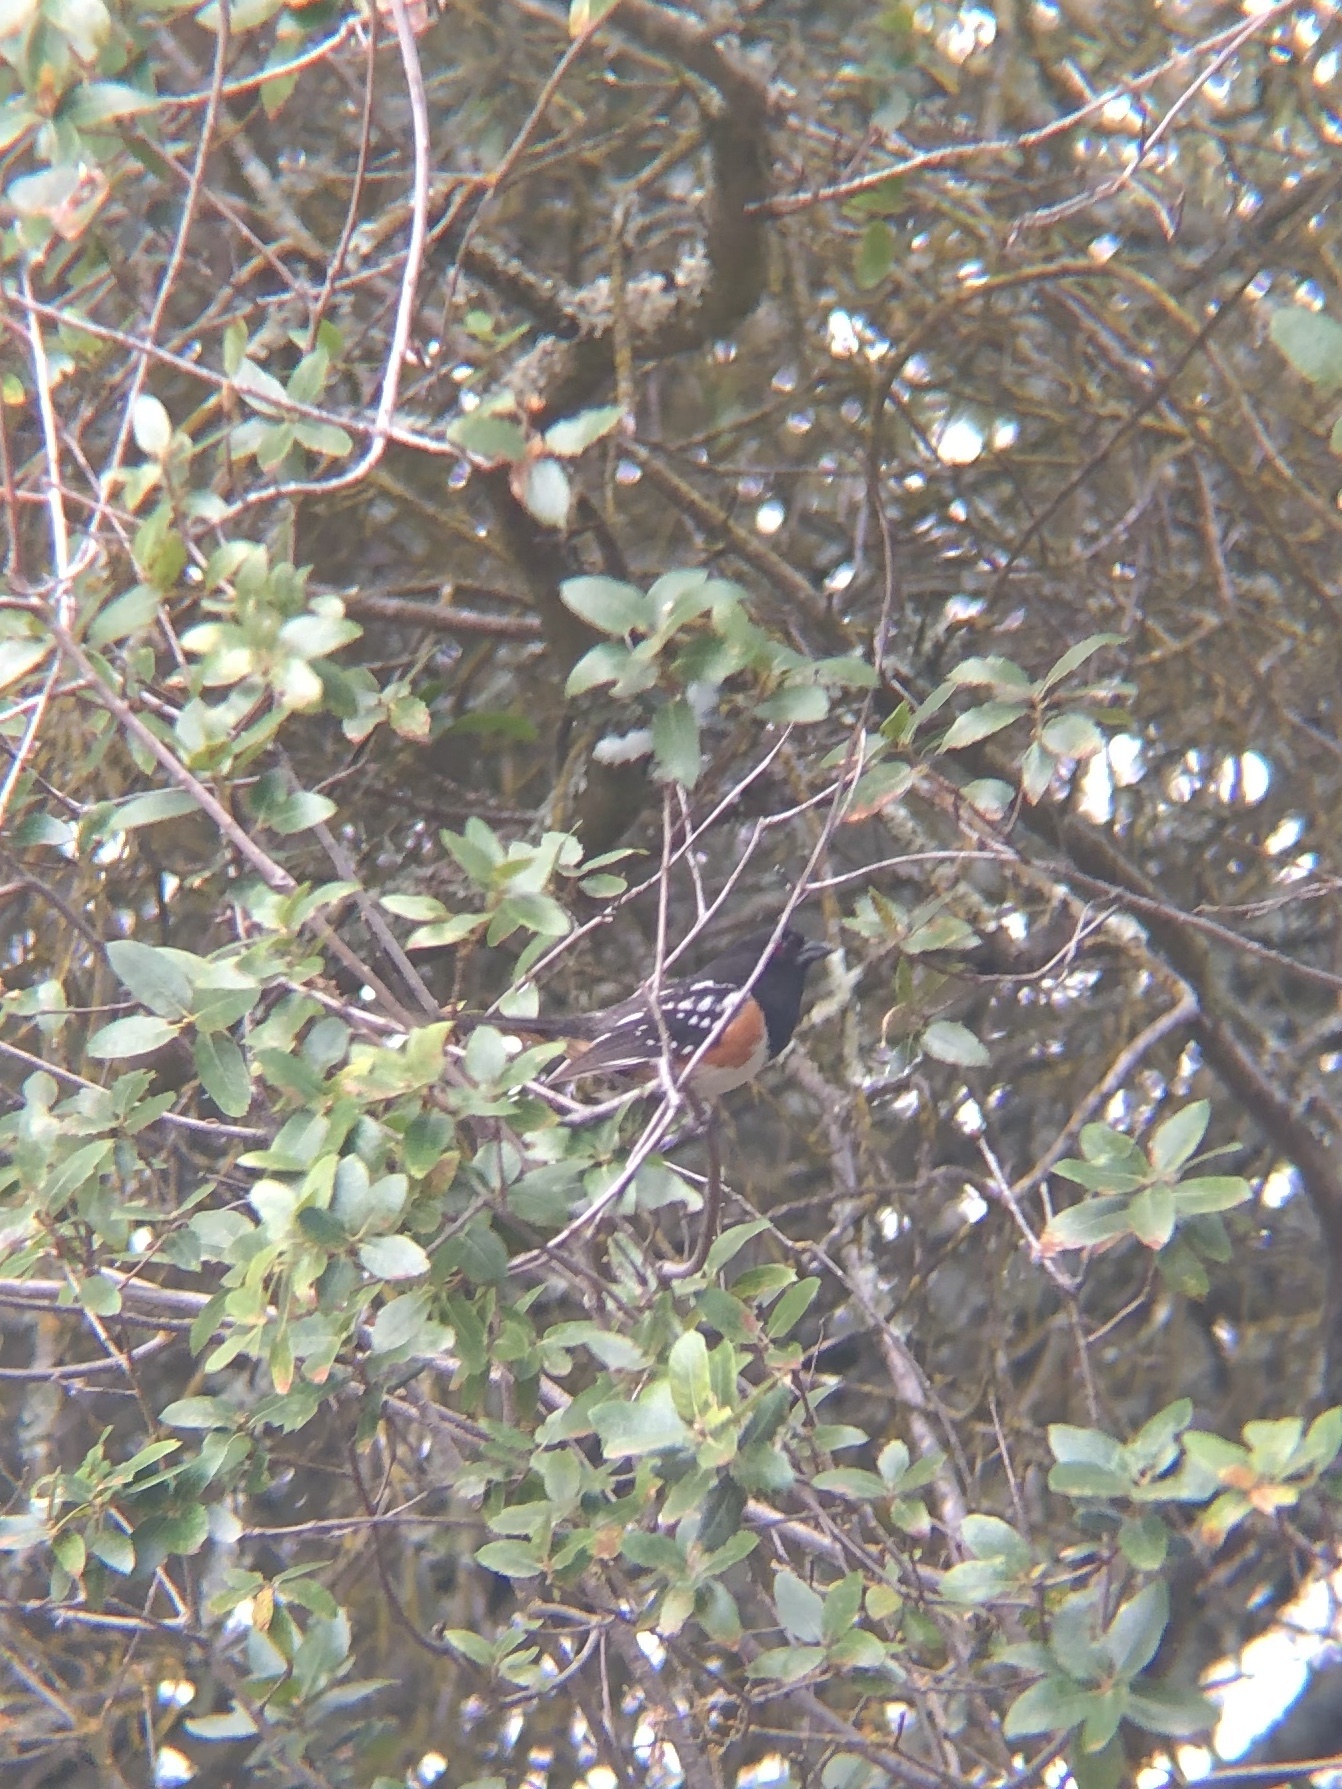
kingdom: Animalia
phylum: Chordata
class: Aves
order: Passeriformes
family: Passerellidae
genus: Pipilo
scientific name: Pipilo maculatus
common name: Spotted towhee
